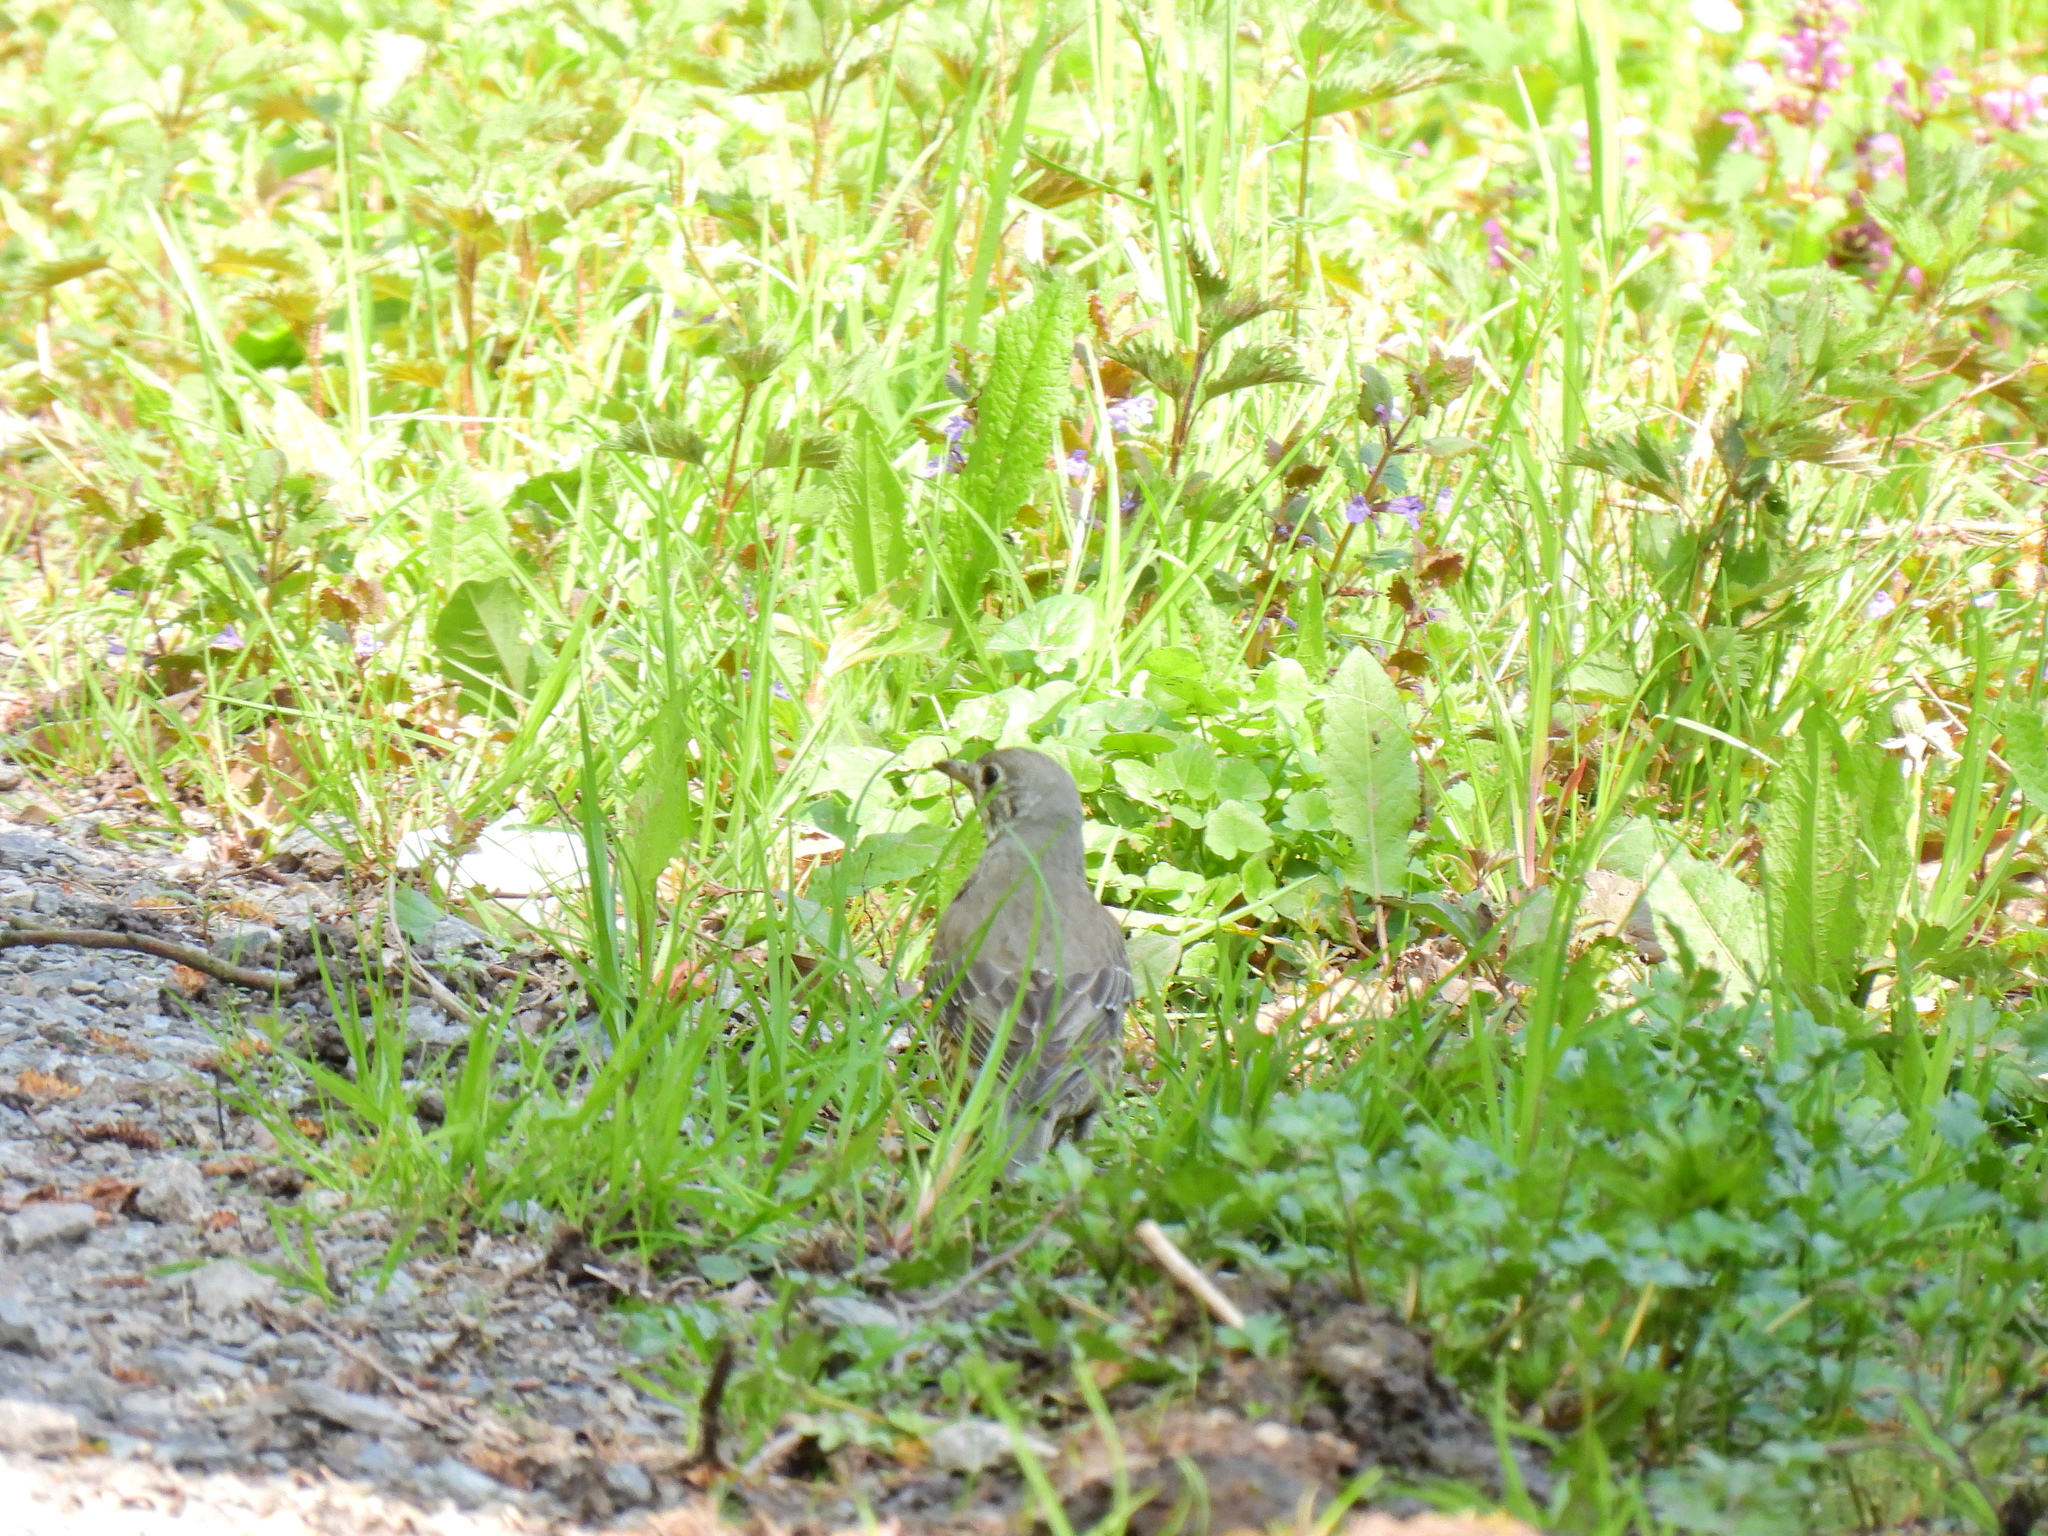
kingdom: Animalia
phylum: Chordata
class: Aves
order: Passeriformes
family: Turdidae
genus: Turdus
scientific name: Turdus viscivorus
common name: Mistle thrush
